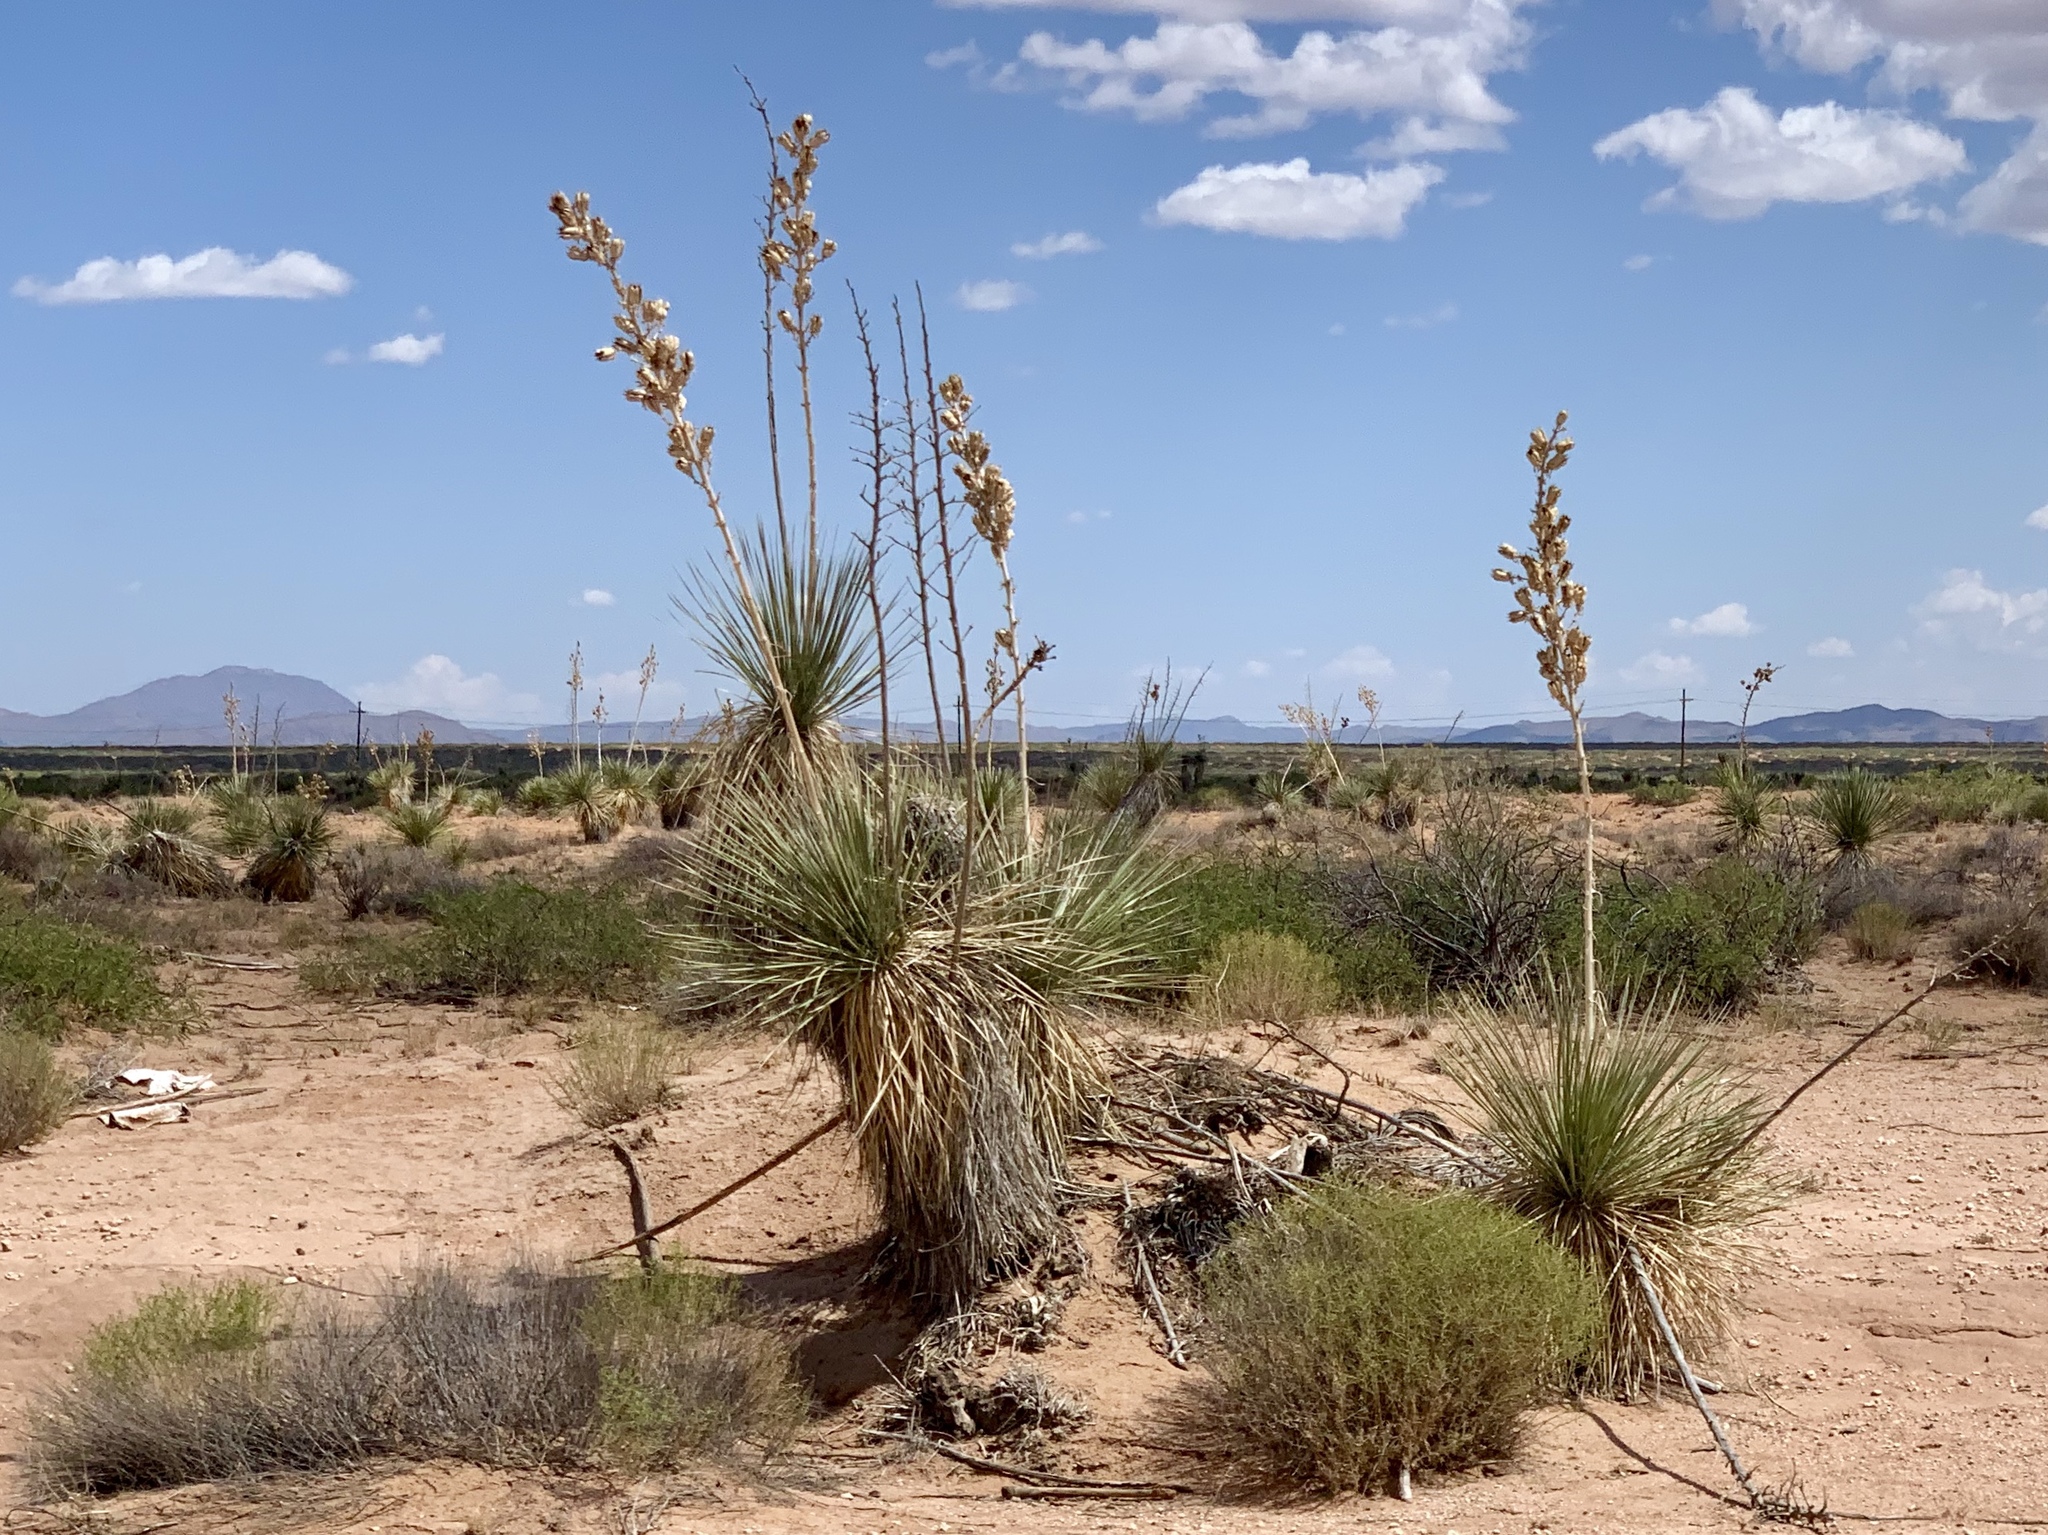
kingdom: Plantae
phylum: Tracheophyta
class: Liliopsida
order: Asparagales
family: Asparagaceae
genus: Yucca
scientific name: Yucca elata
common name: Palmella
